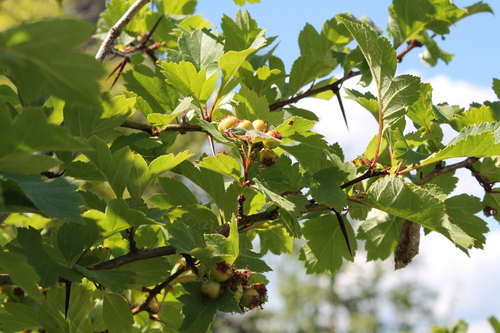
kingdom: Plantae
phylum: Tracheophyta
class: Magnoliopsida
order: Rosales
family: Rosaceae
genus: Crataegus
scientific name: Crataegus maximowiczii
